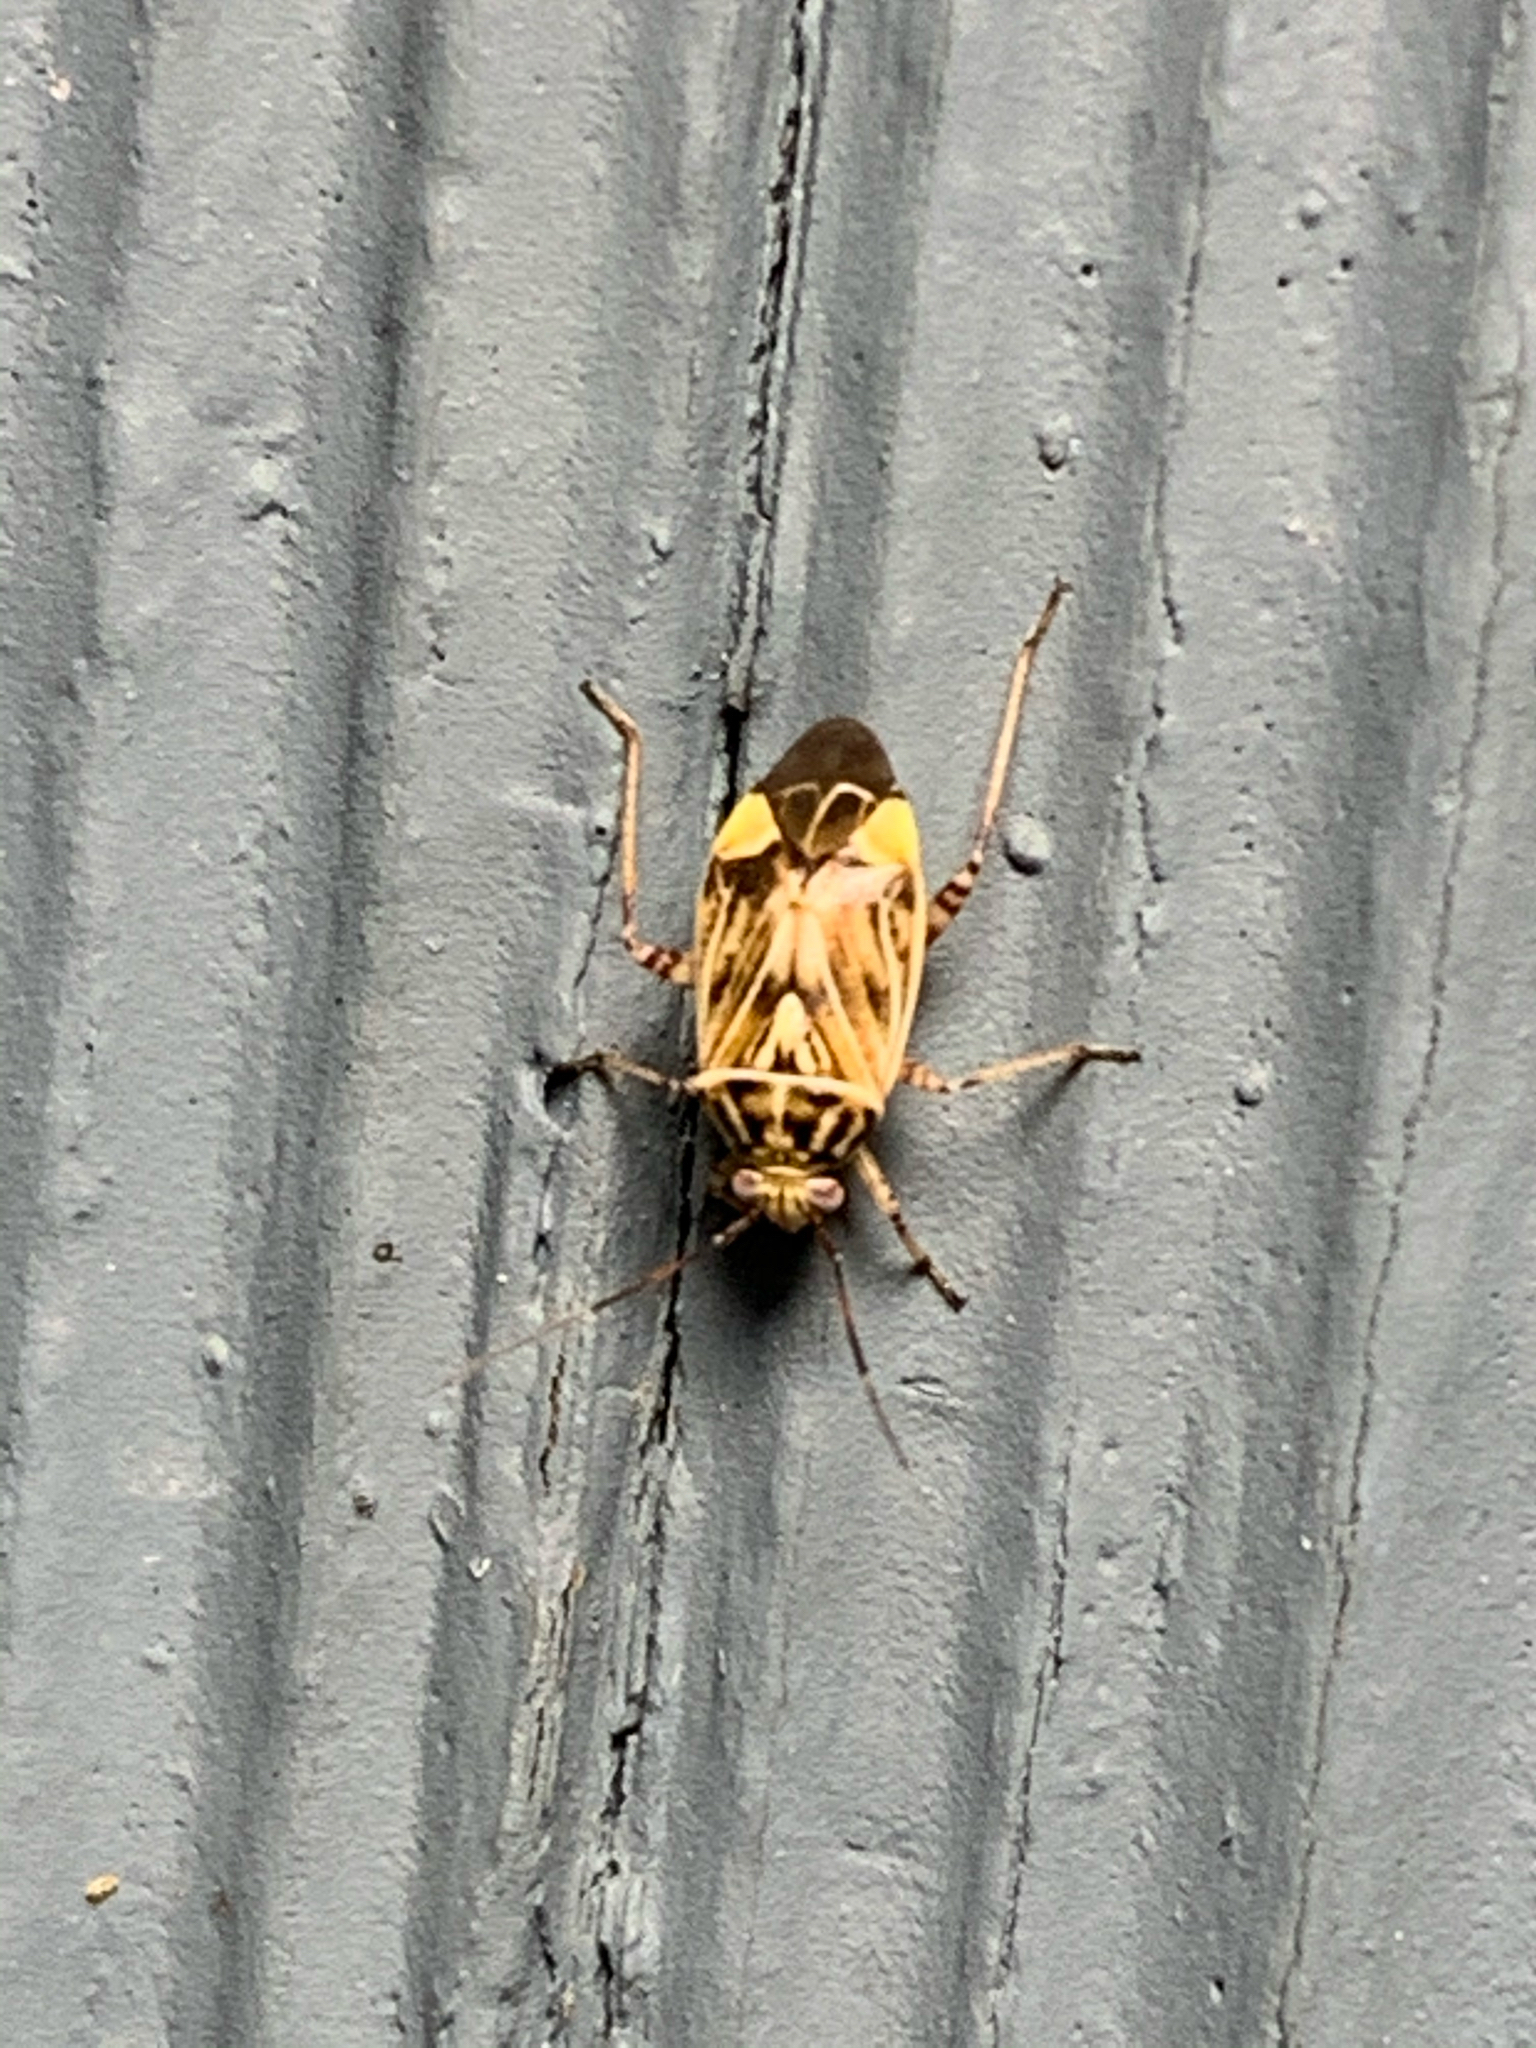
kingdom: Animalia
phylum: Arthropoda
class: Insecta
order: Hemiptera
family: Miridae
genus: Lygus
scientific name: Lygus lineolaris
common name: North american tarnished plant bug
